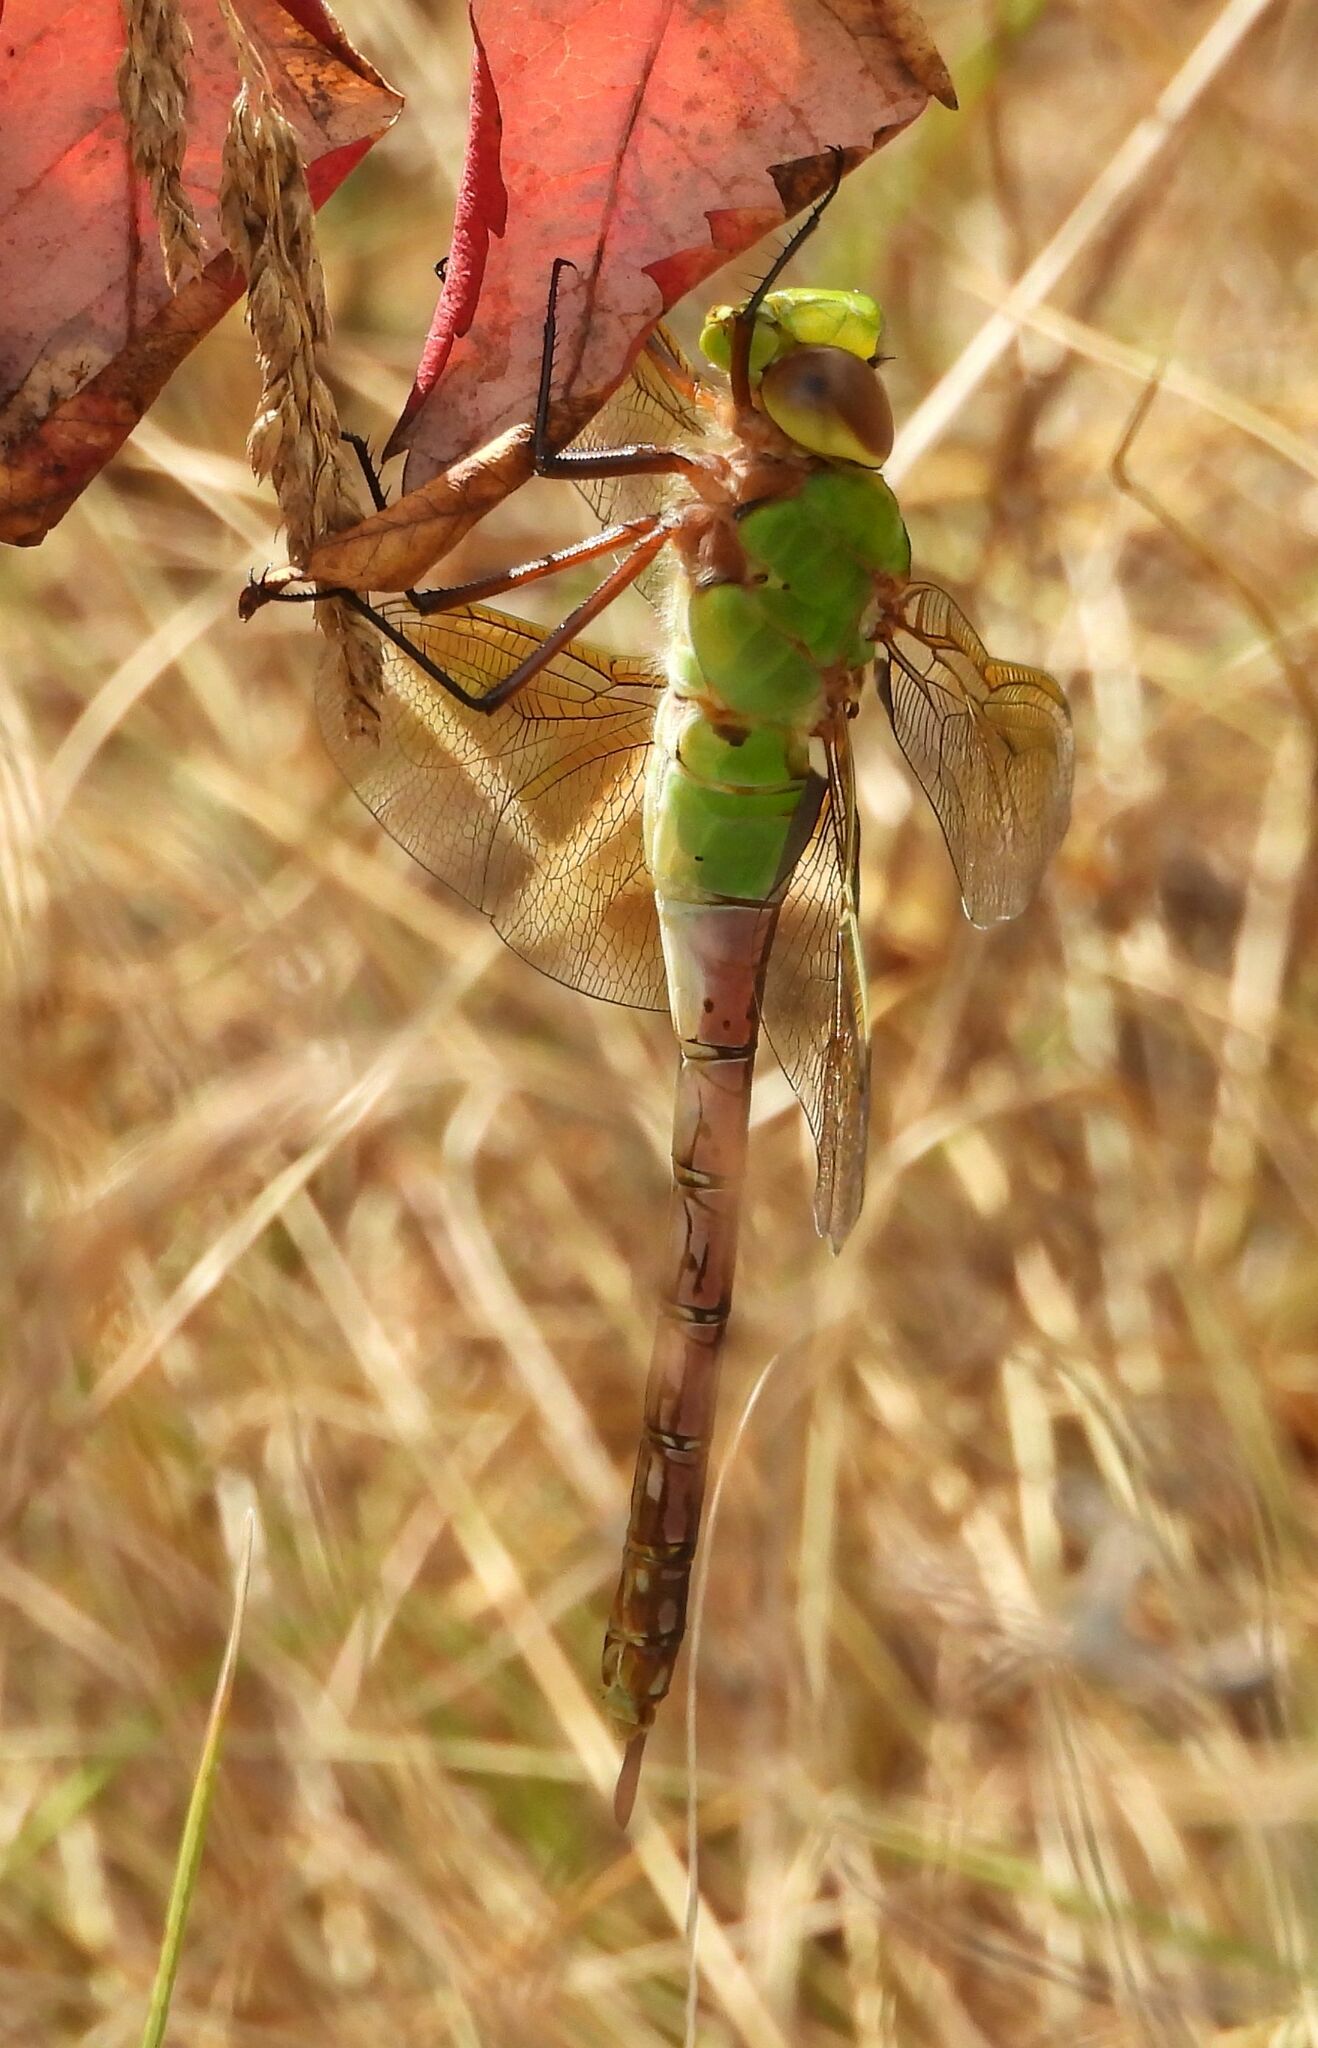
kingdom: Animalia
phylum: Arthropoda
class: Insecta
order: Odonata
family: Aeshnidae
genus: Anax
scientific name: Anax junius
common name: Common green darner
